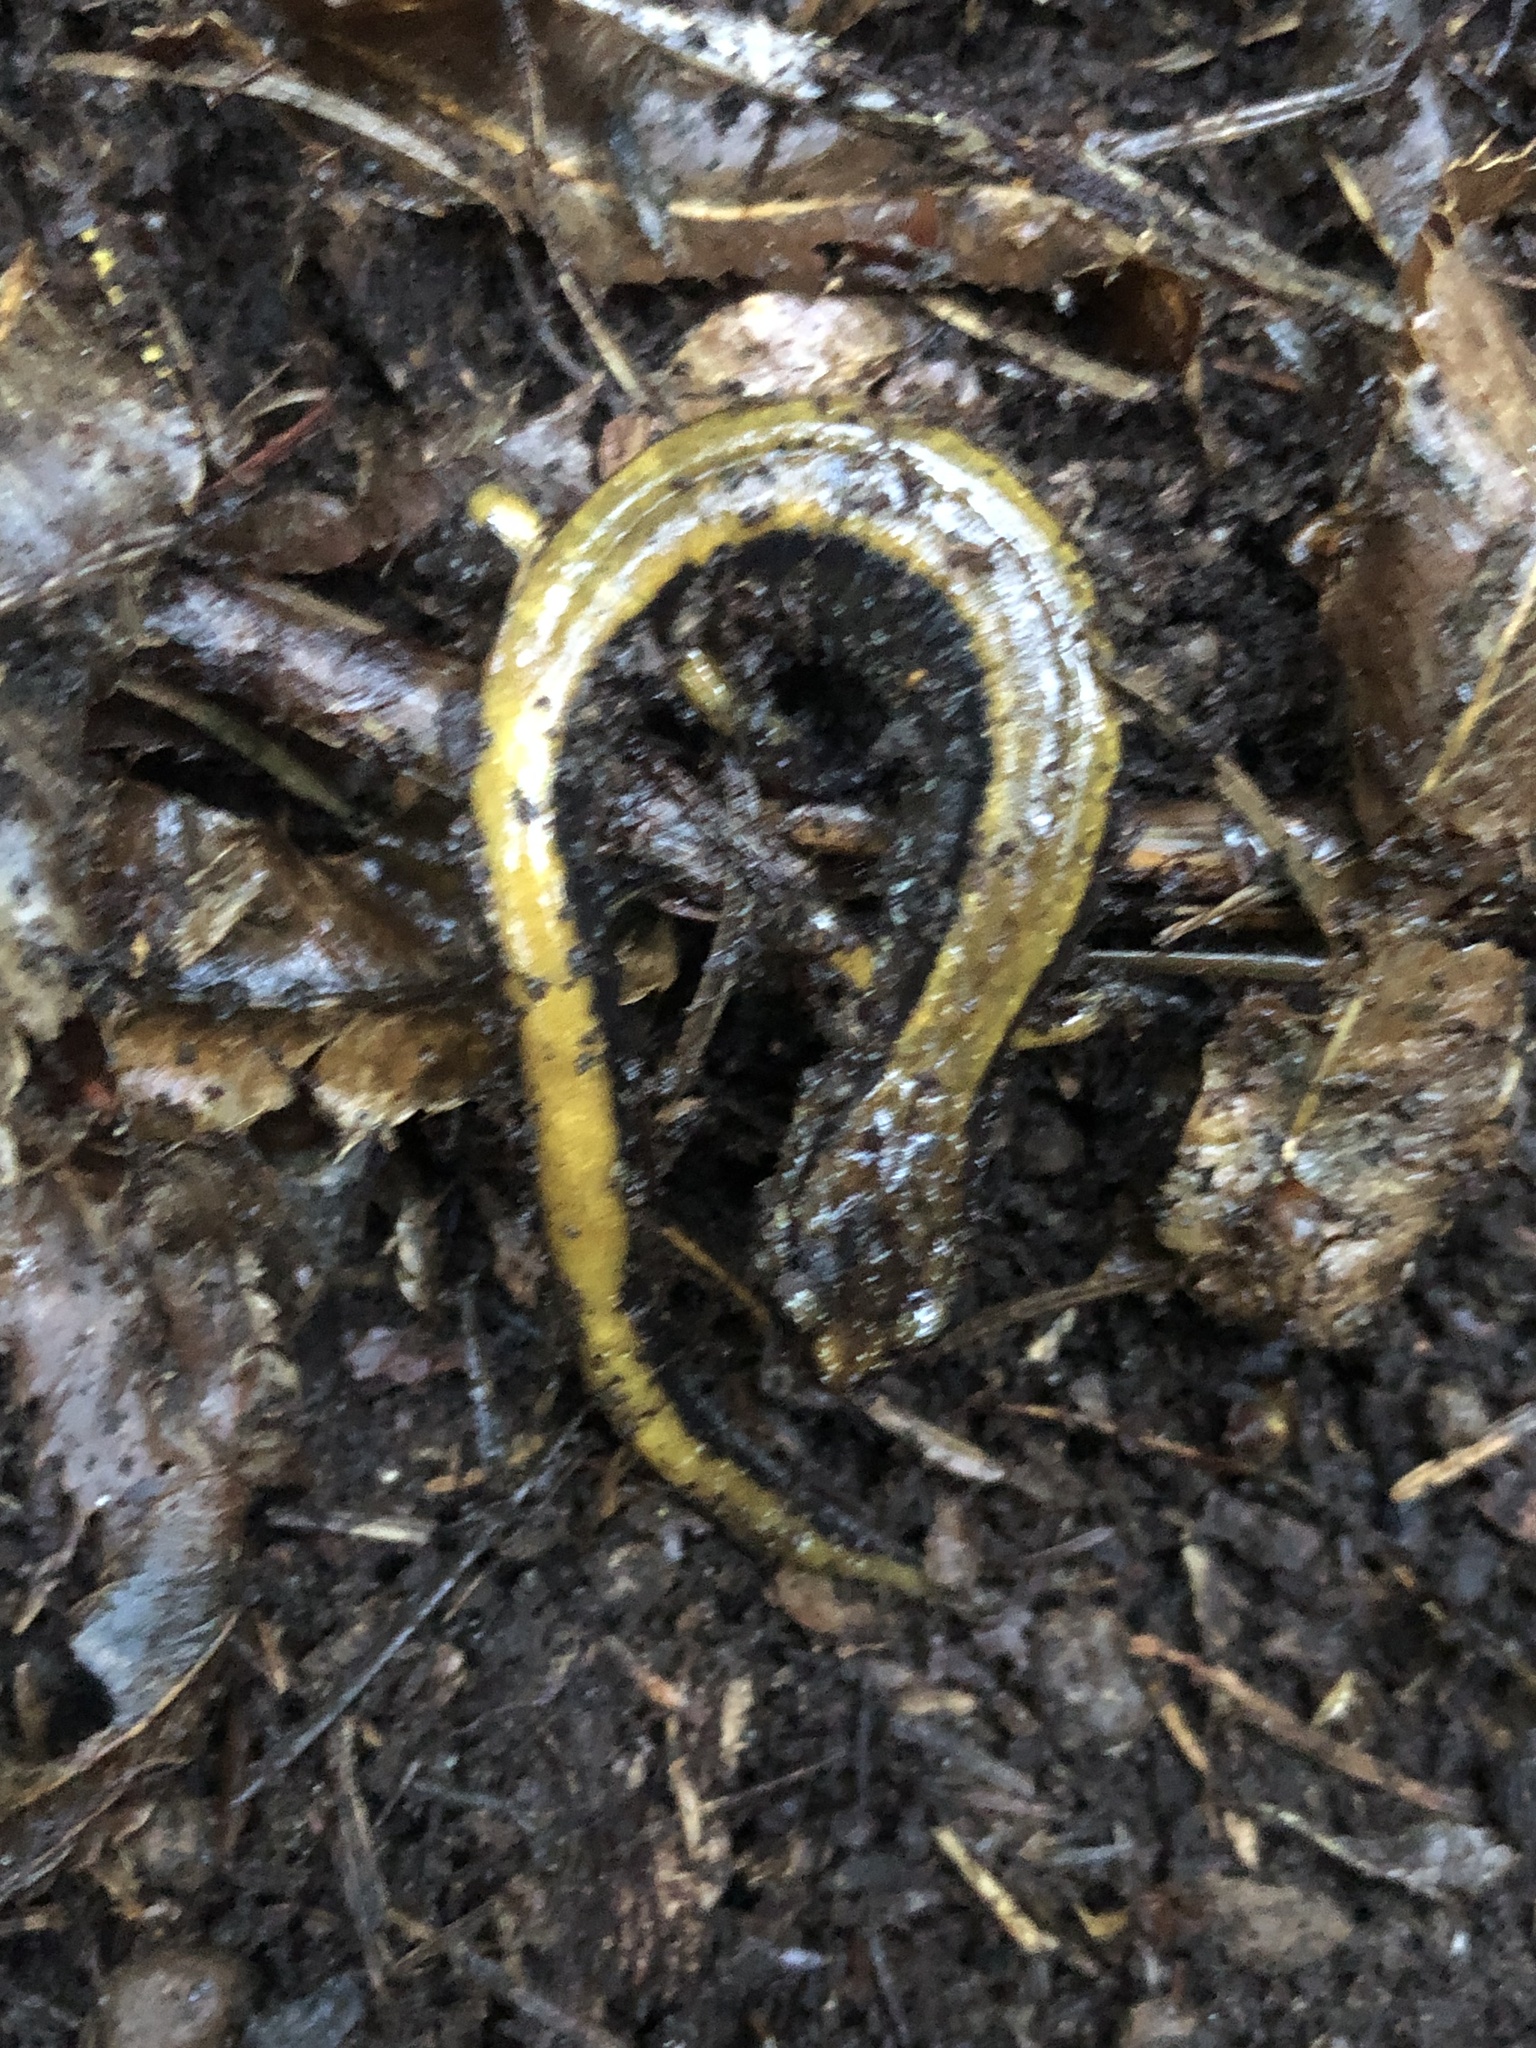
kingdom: Animalia
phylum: Chordata
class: Amphibia
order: Caudata
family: Plethodontidae
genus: Plethodon
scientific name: Plethodon vehiculum
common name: Western red-backed salamander
